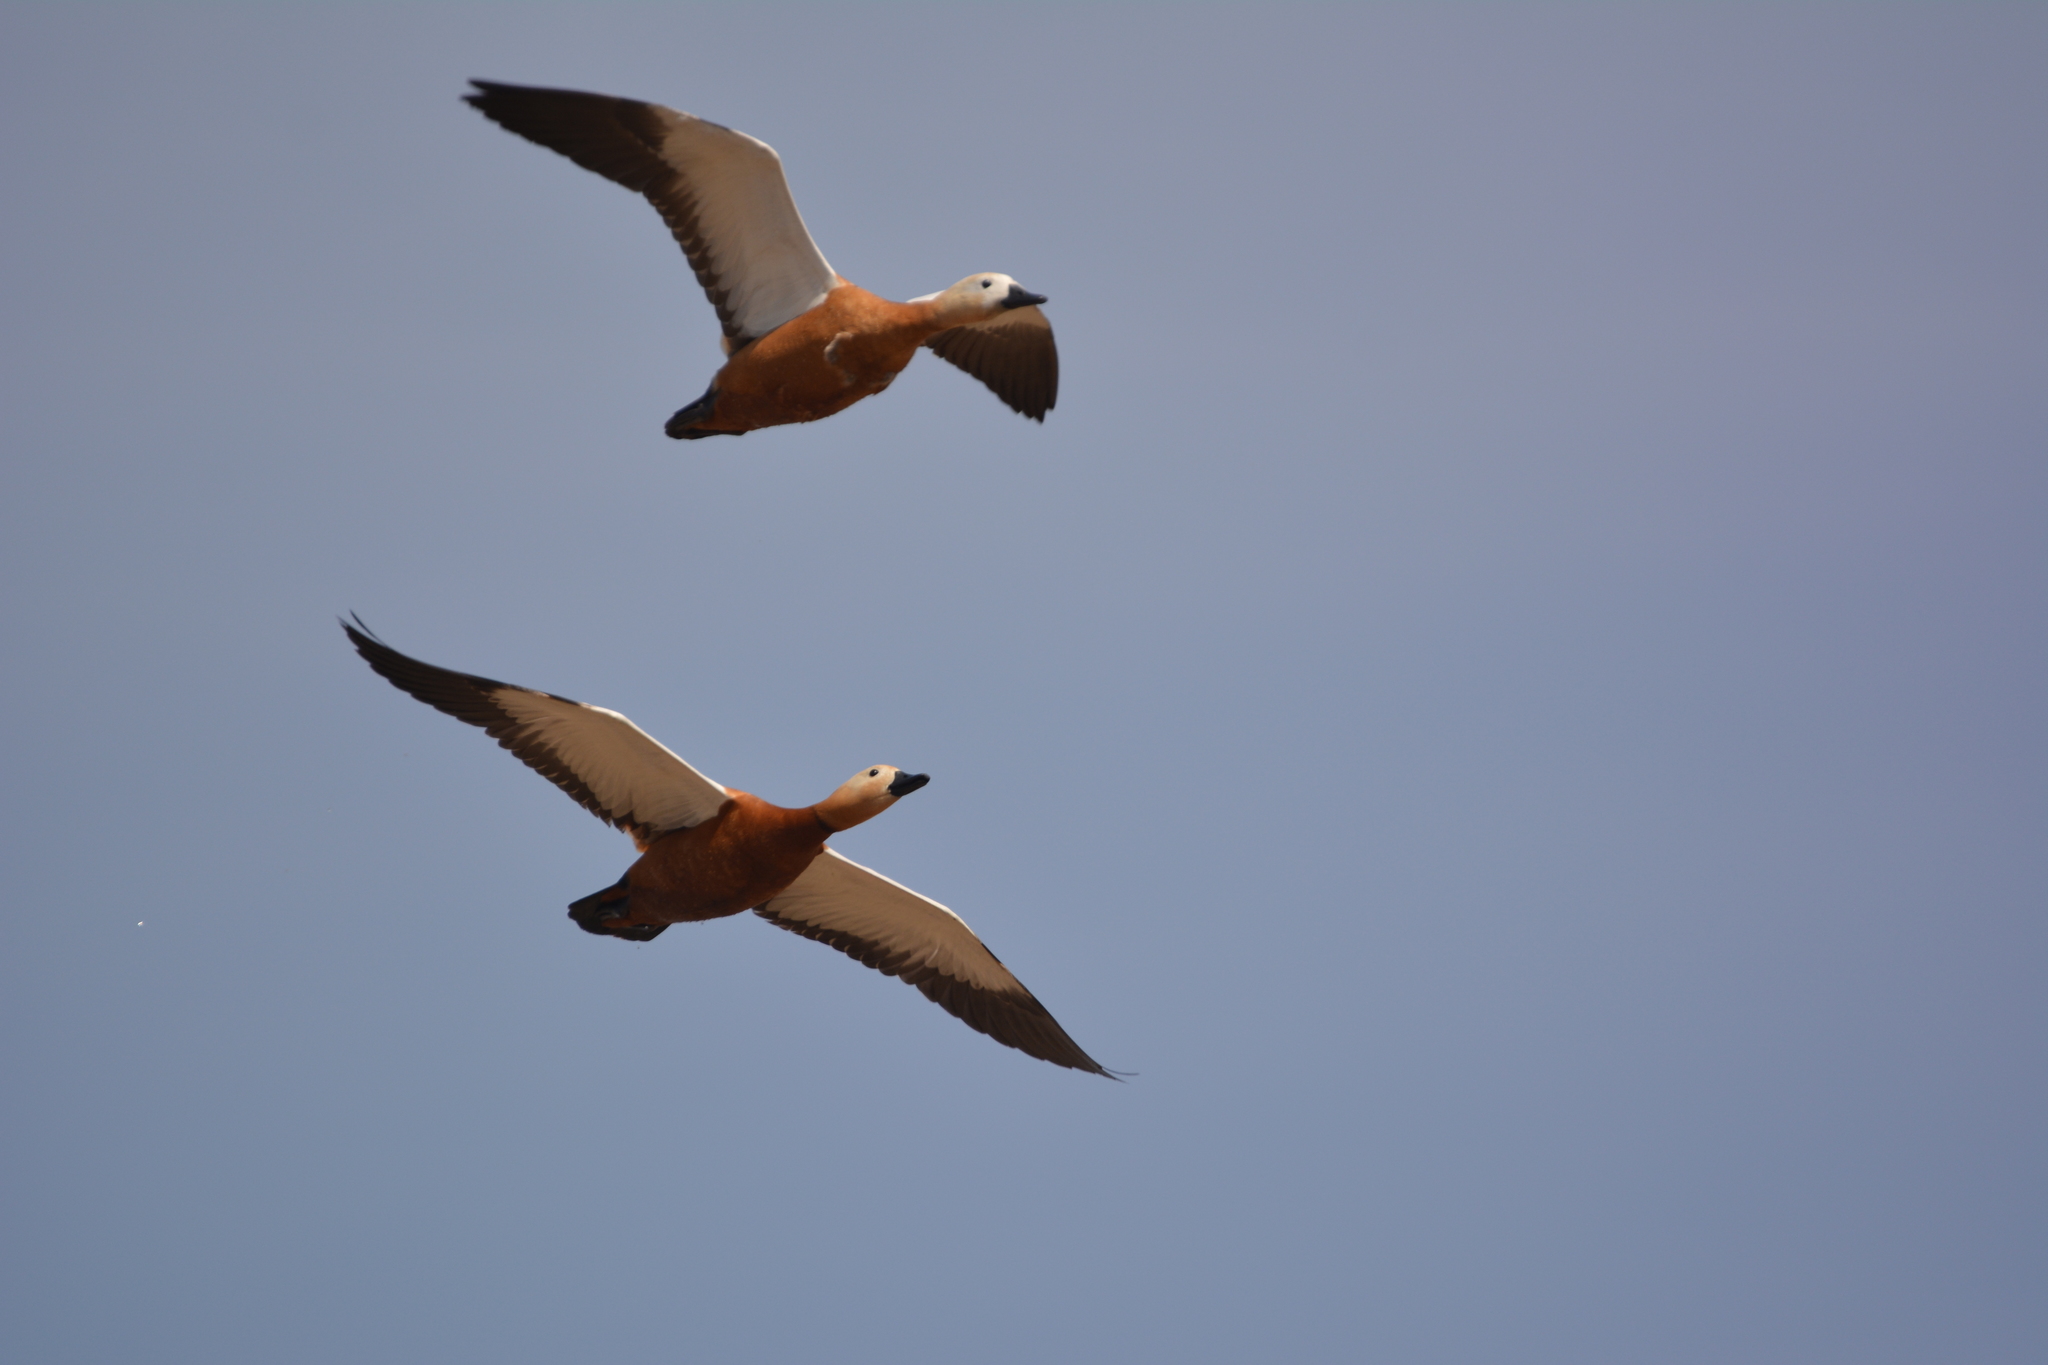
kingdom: Animalia
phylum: Chordata
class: Aves
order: Anseriformes
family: Anatidae
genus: Tadorna
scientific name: Tadorna ferruginea
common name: Ruddy shelduck
